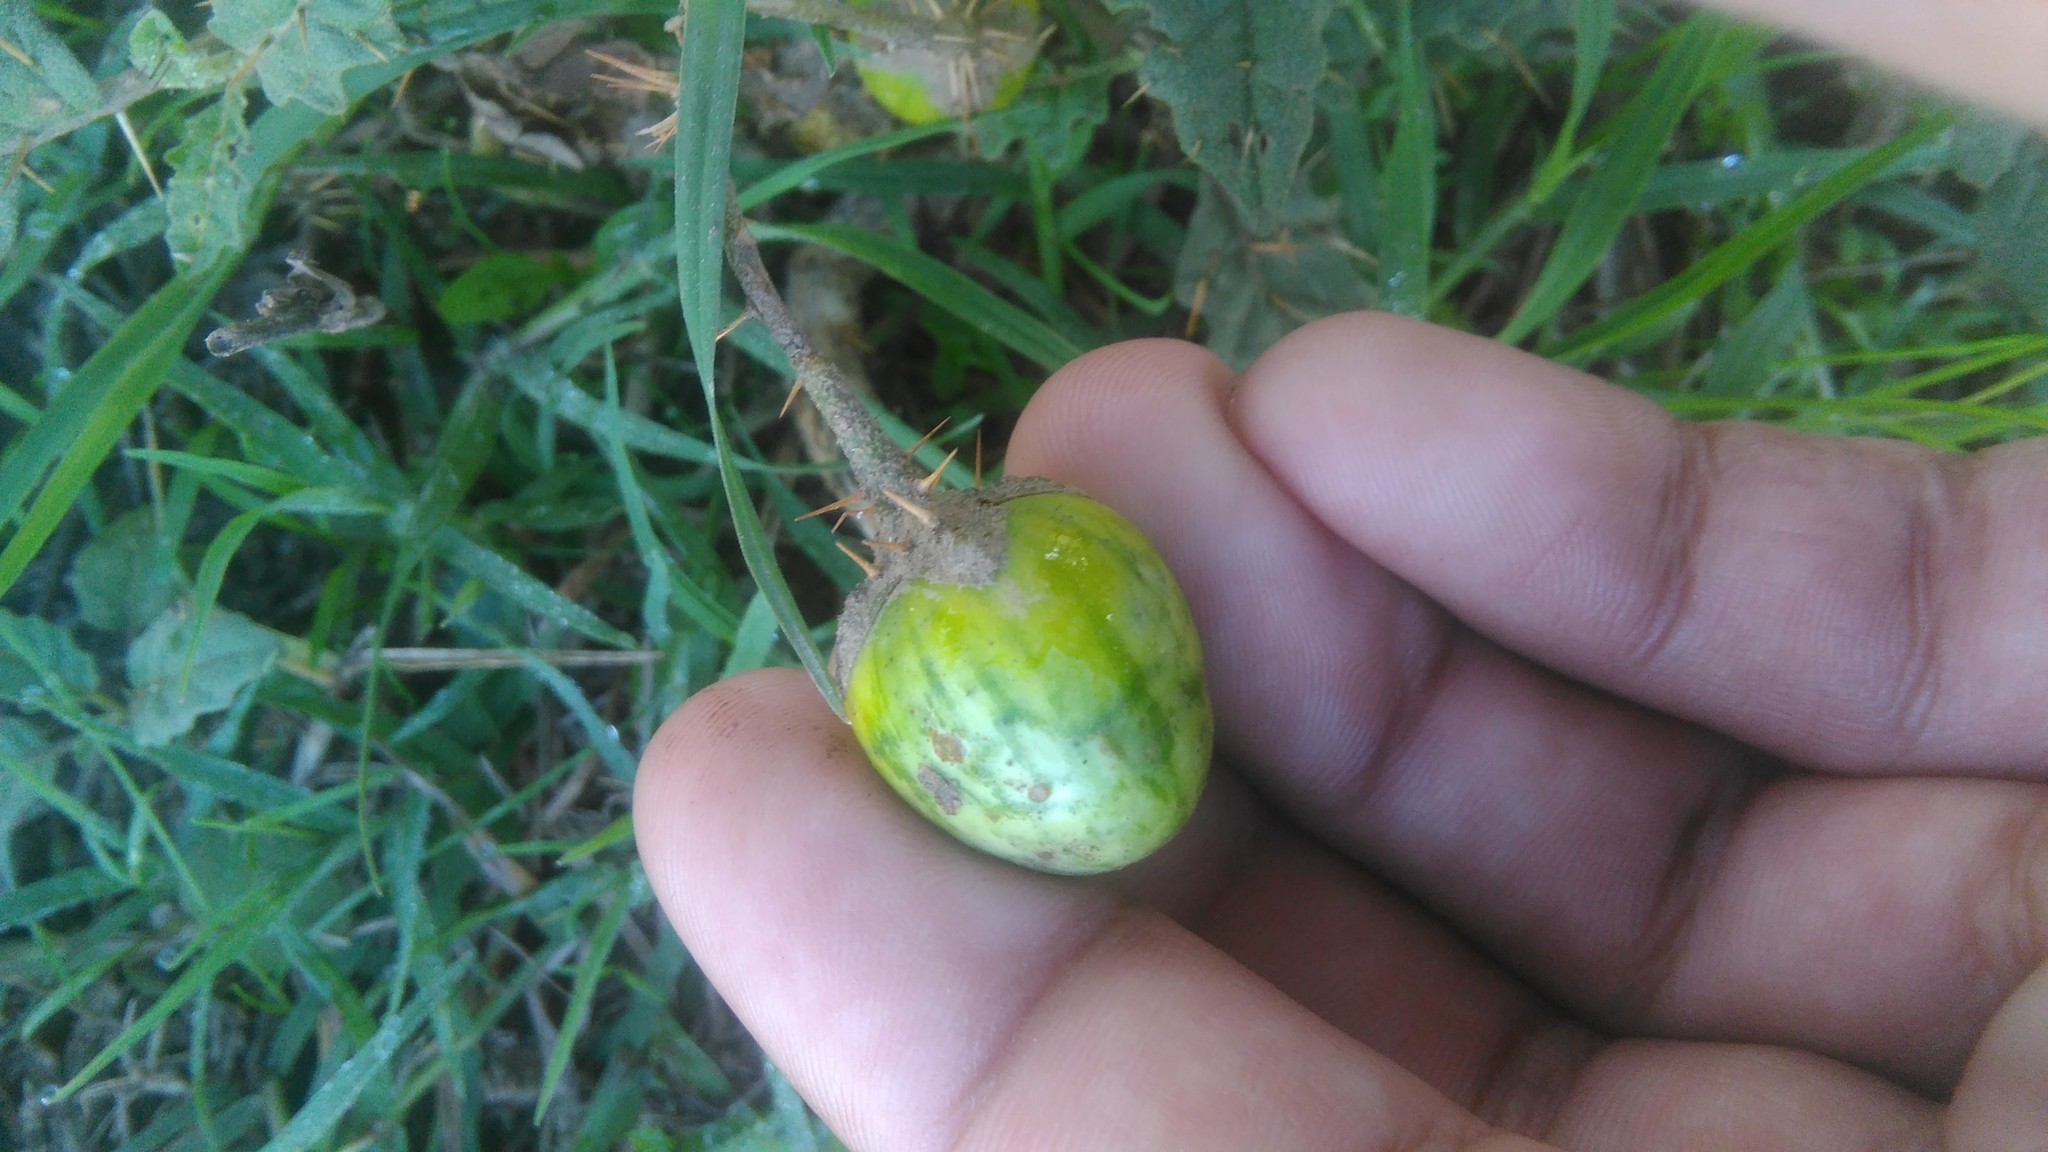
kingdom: Plantae
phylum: Tracheophyta
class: Magnoliopsida
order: Solanales
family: Solanaceae
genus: Solanum
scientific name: Solanum juvenale
